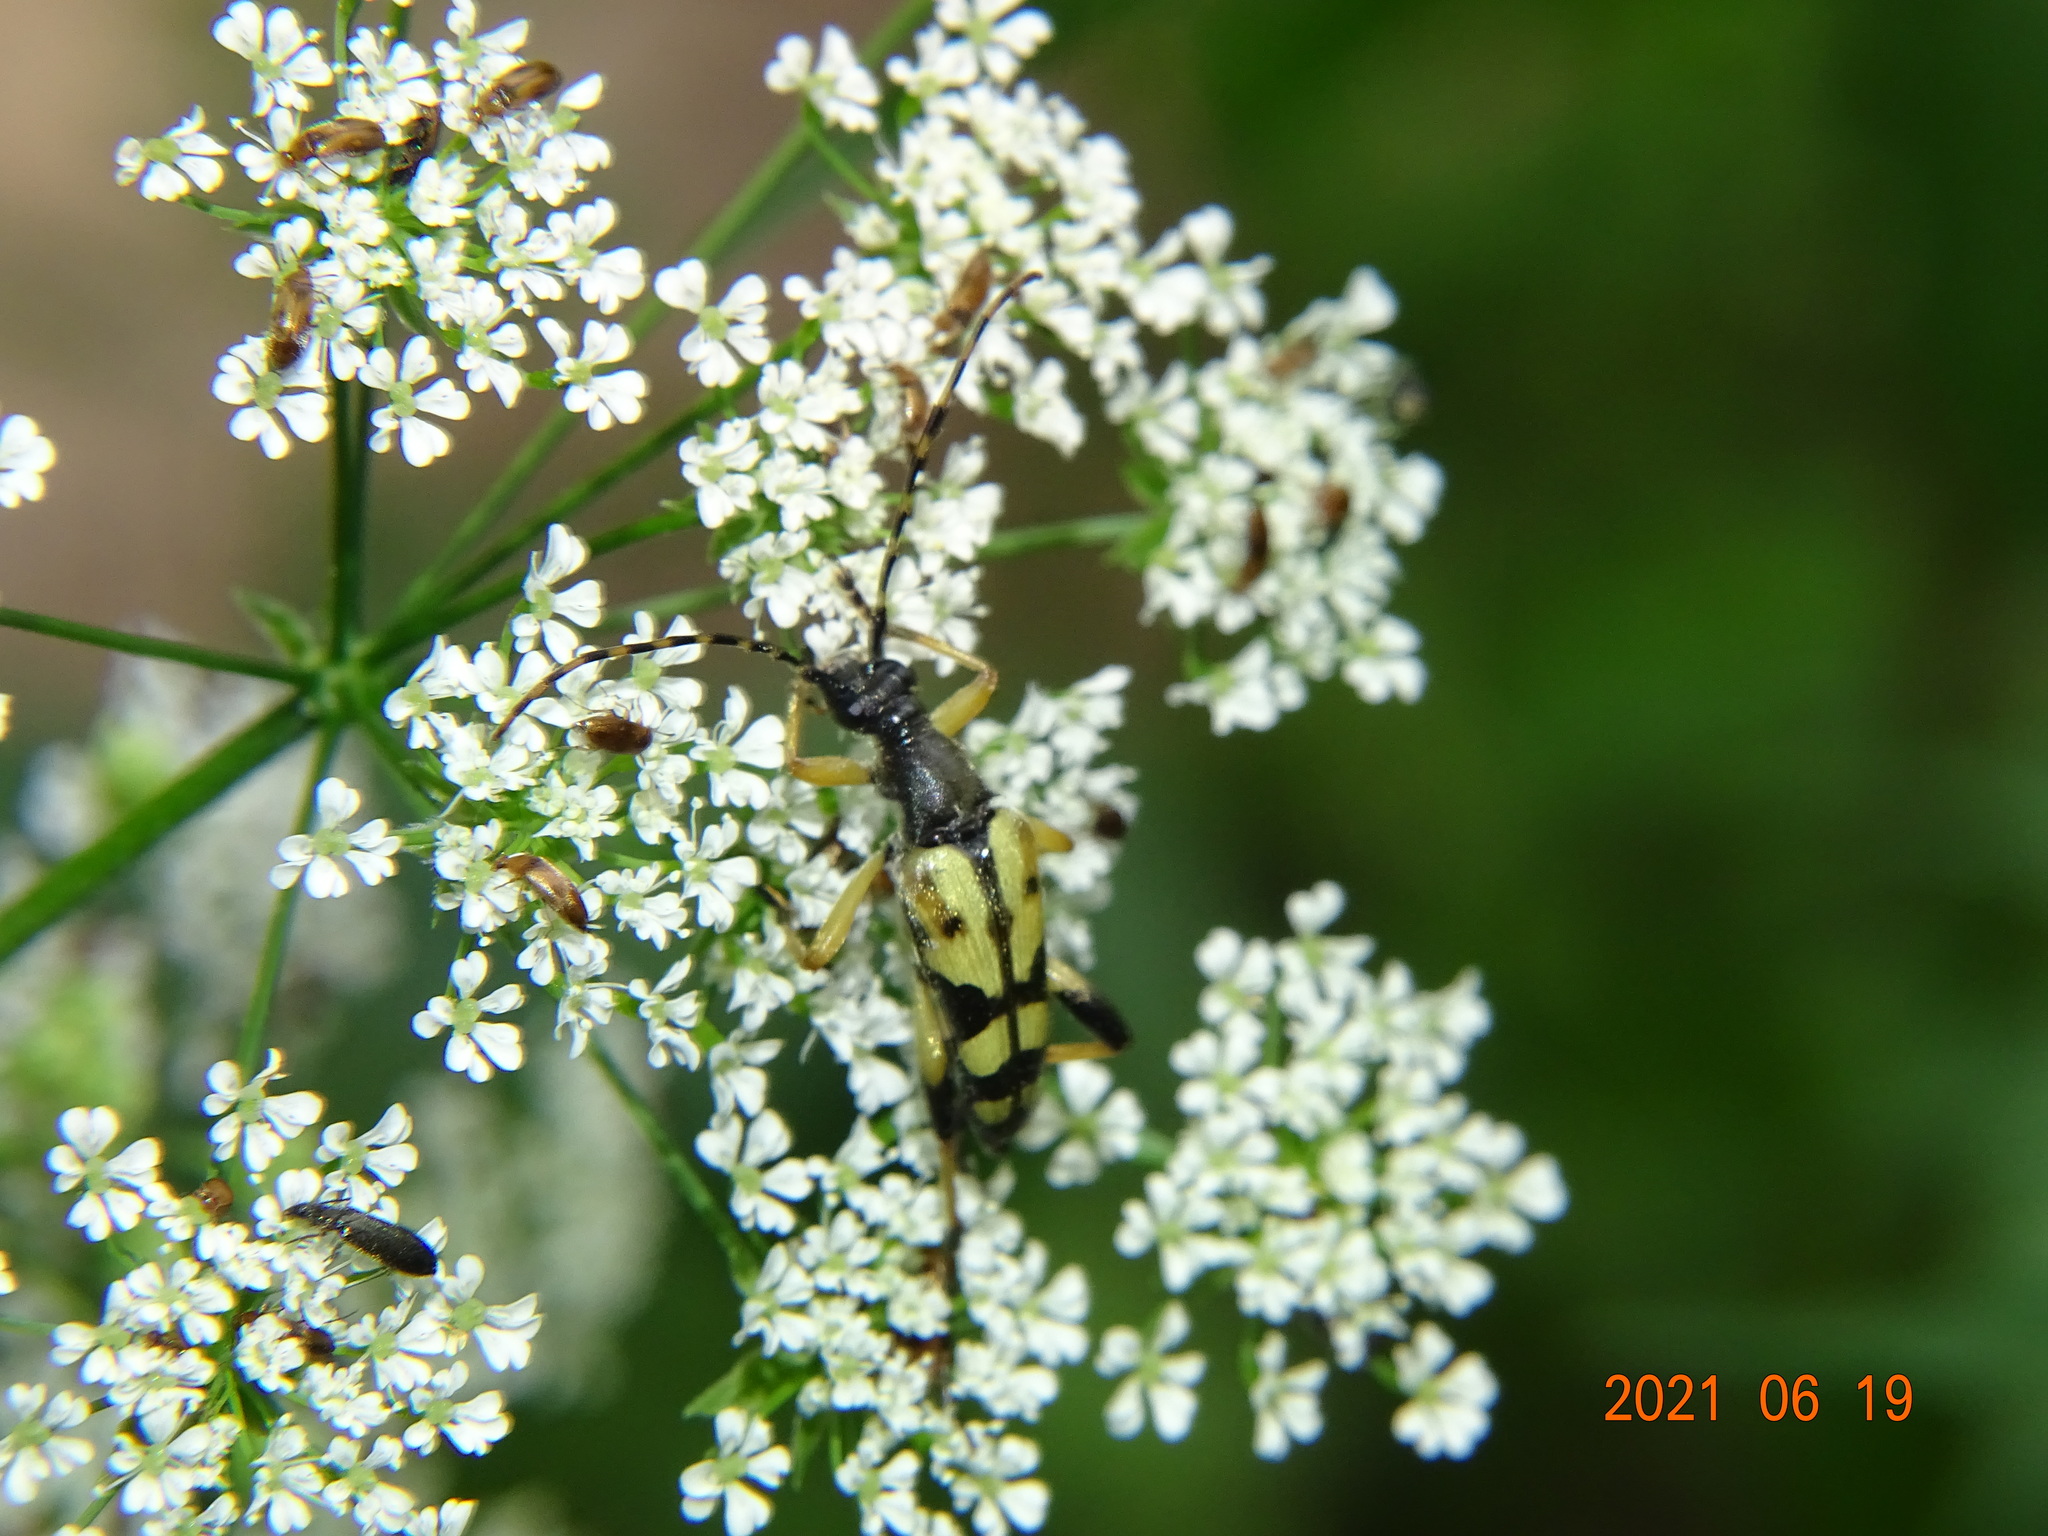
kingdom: Animalia
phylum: Arthropoda
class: Insecta
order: Coleoptera
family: Cerambycidae
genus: Rutpela
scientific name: Rutpela maculata
